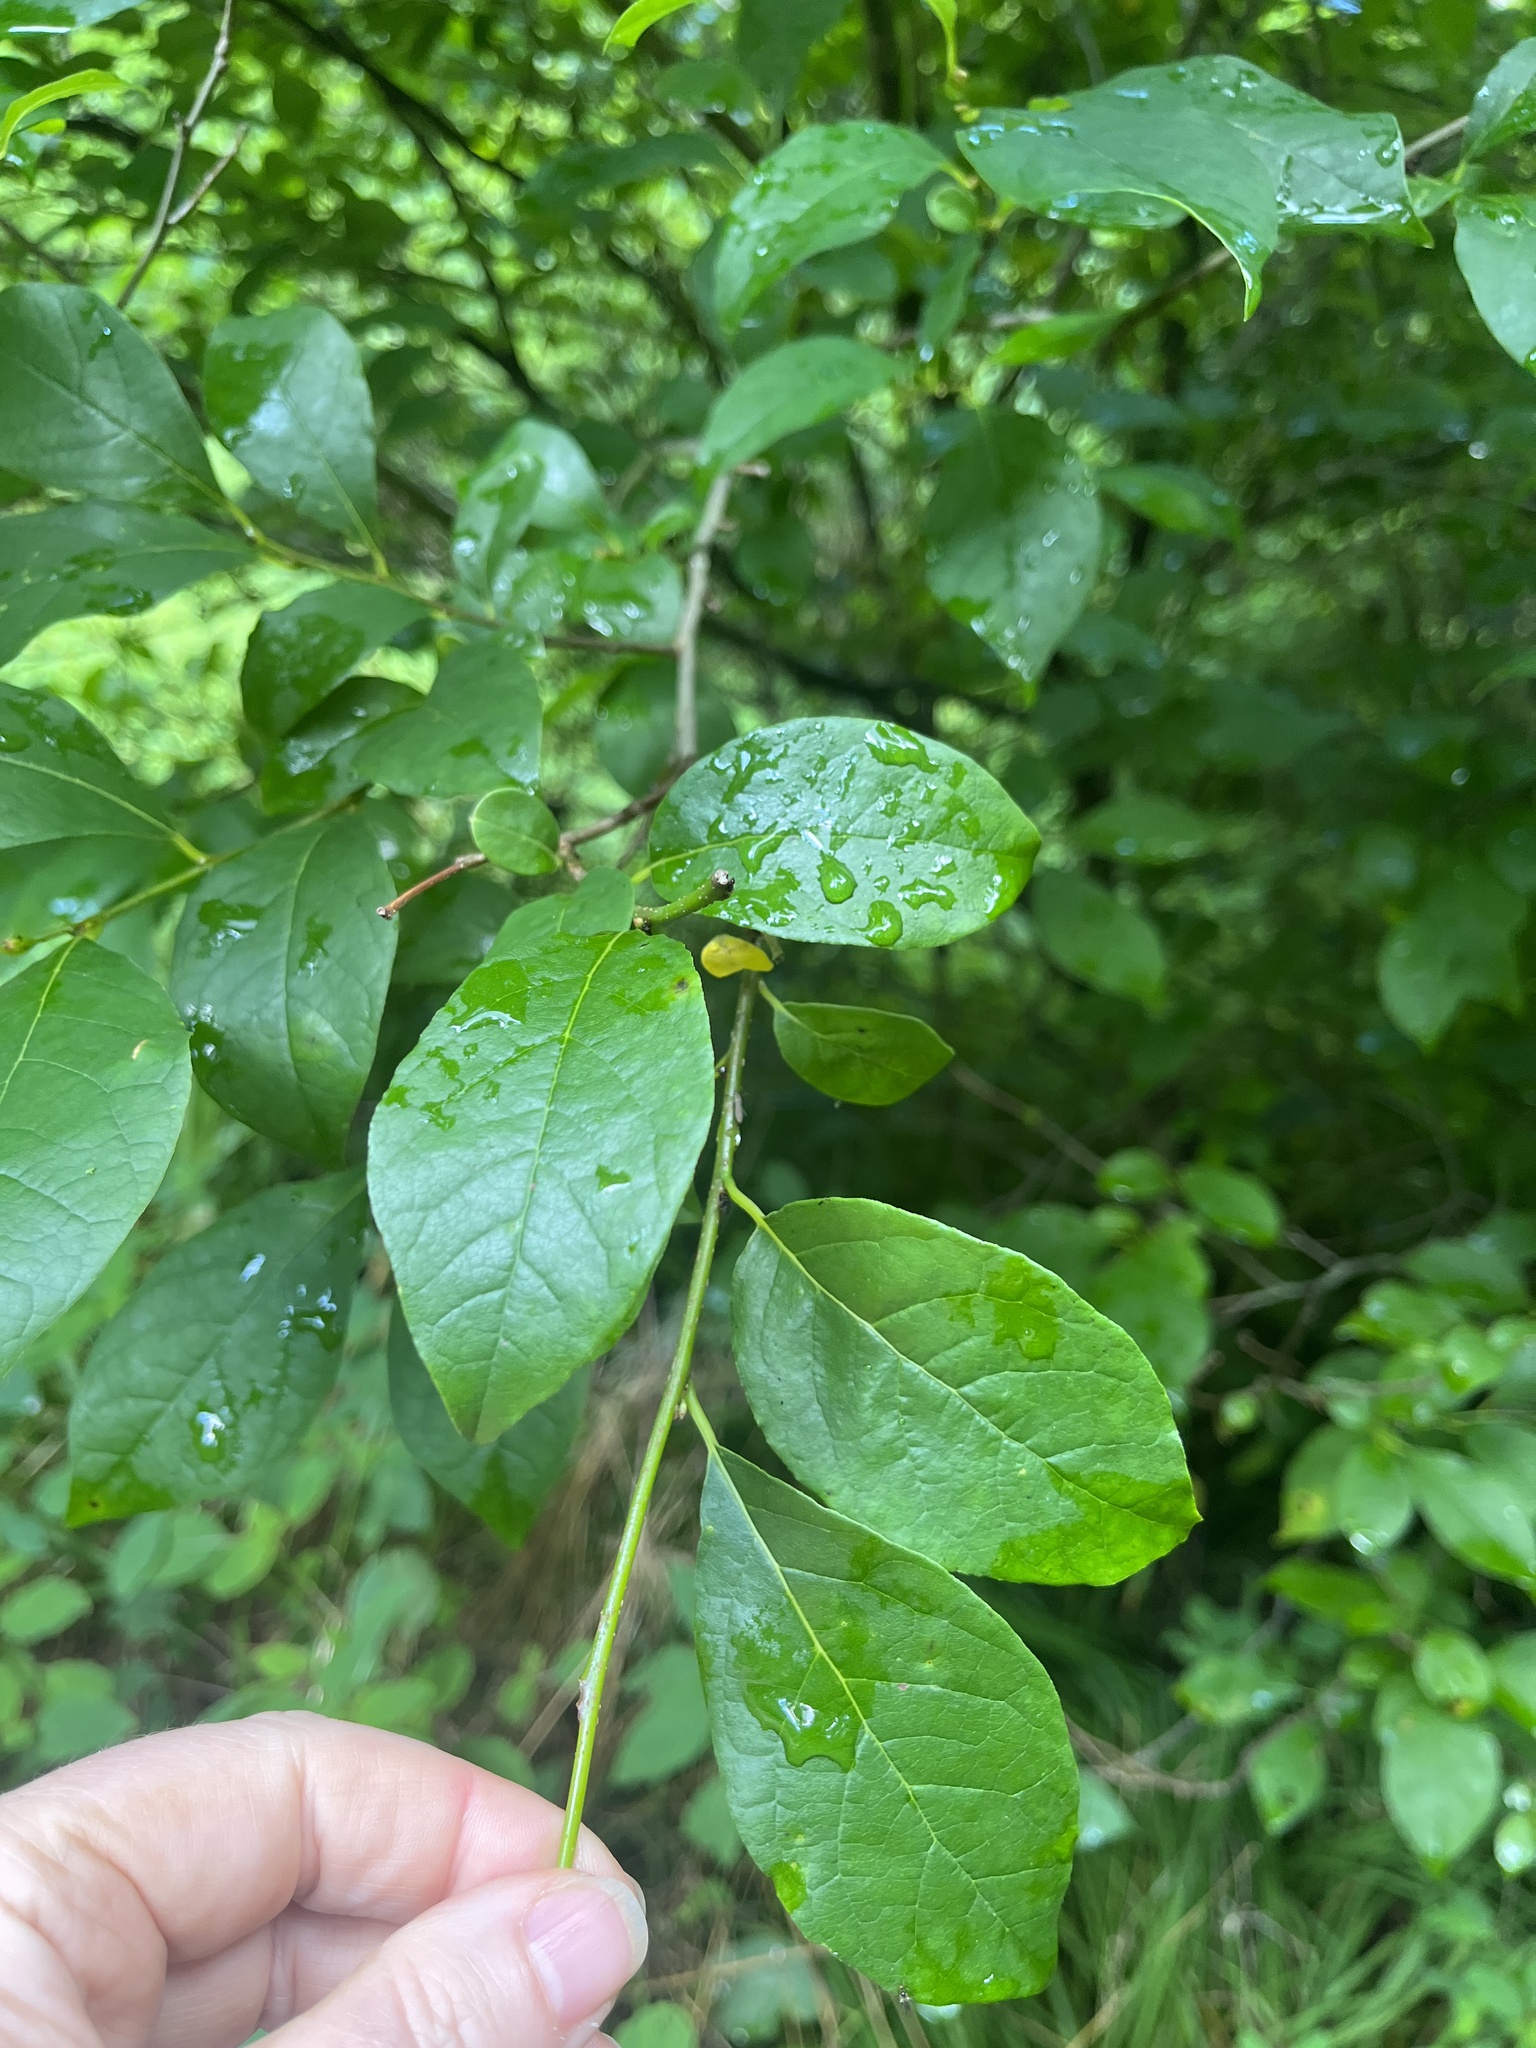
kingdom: Plantae
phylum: Tracheophyta
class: Magnoliopsida
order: Laurales
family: Lauraceae
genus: Lindera
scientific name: Lindera benzoin
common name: Spicebush
